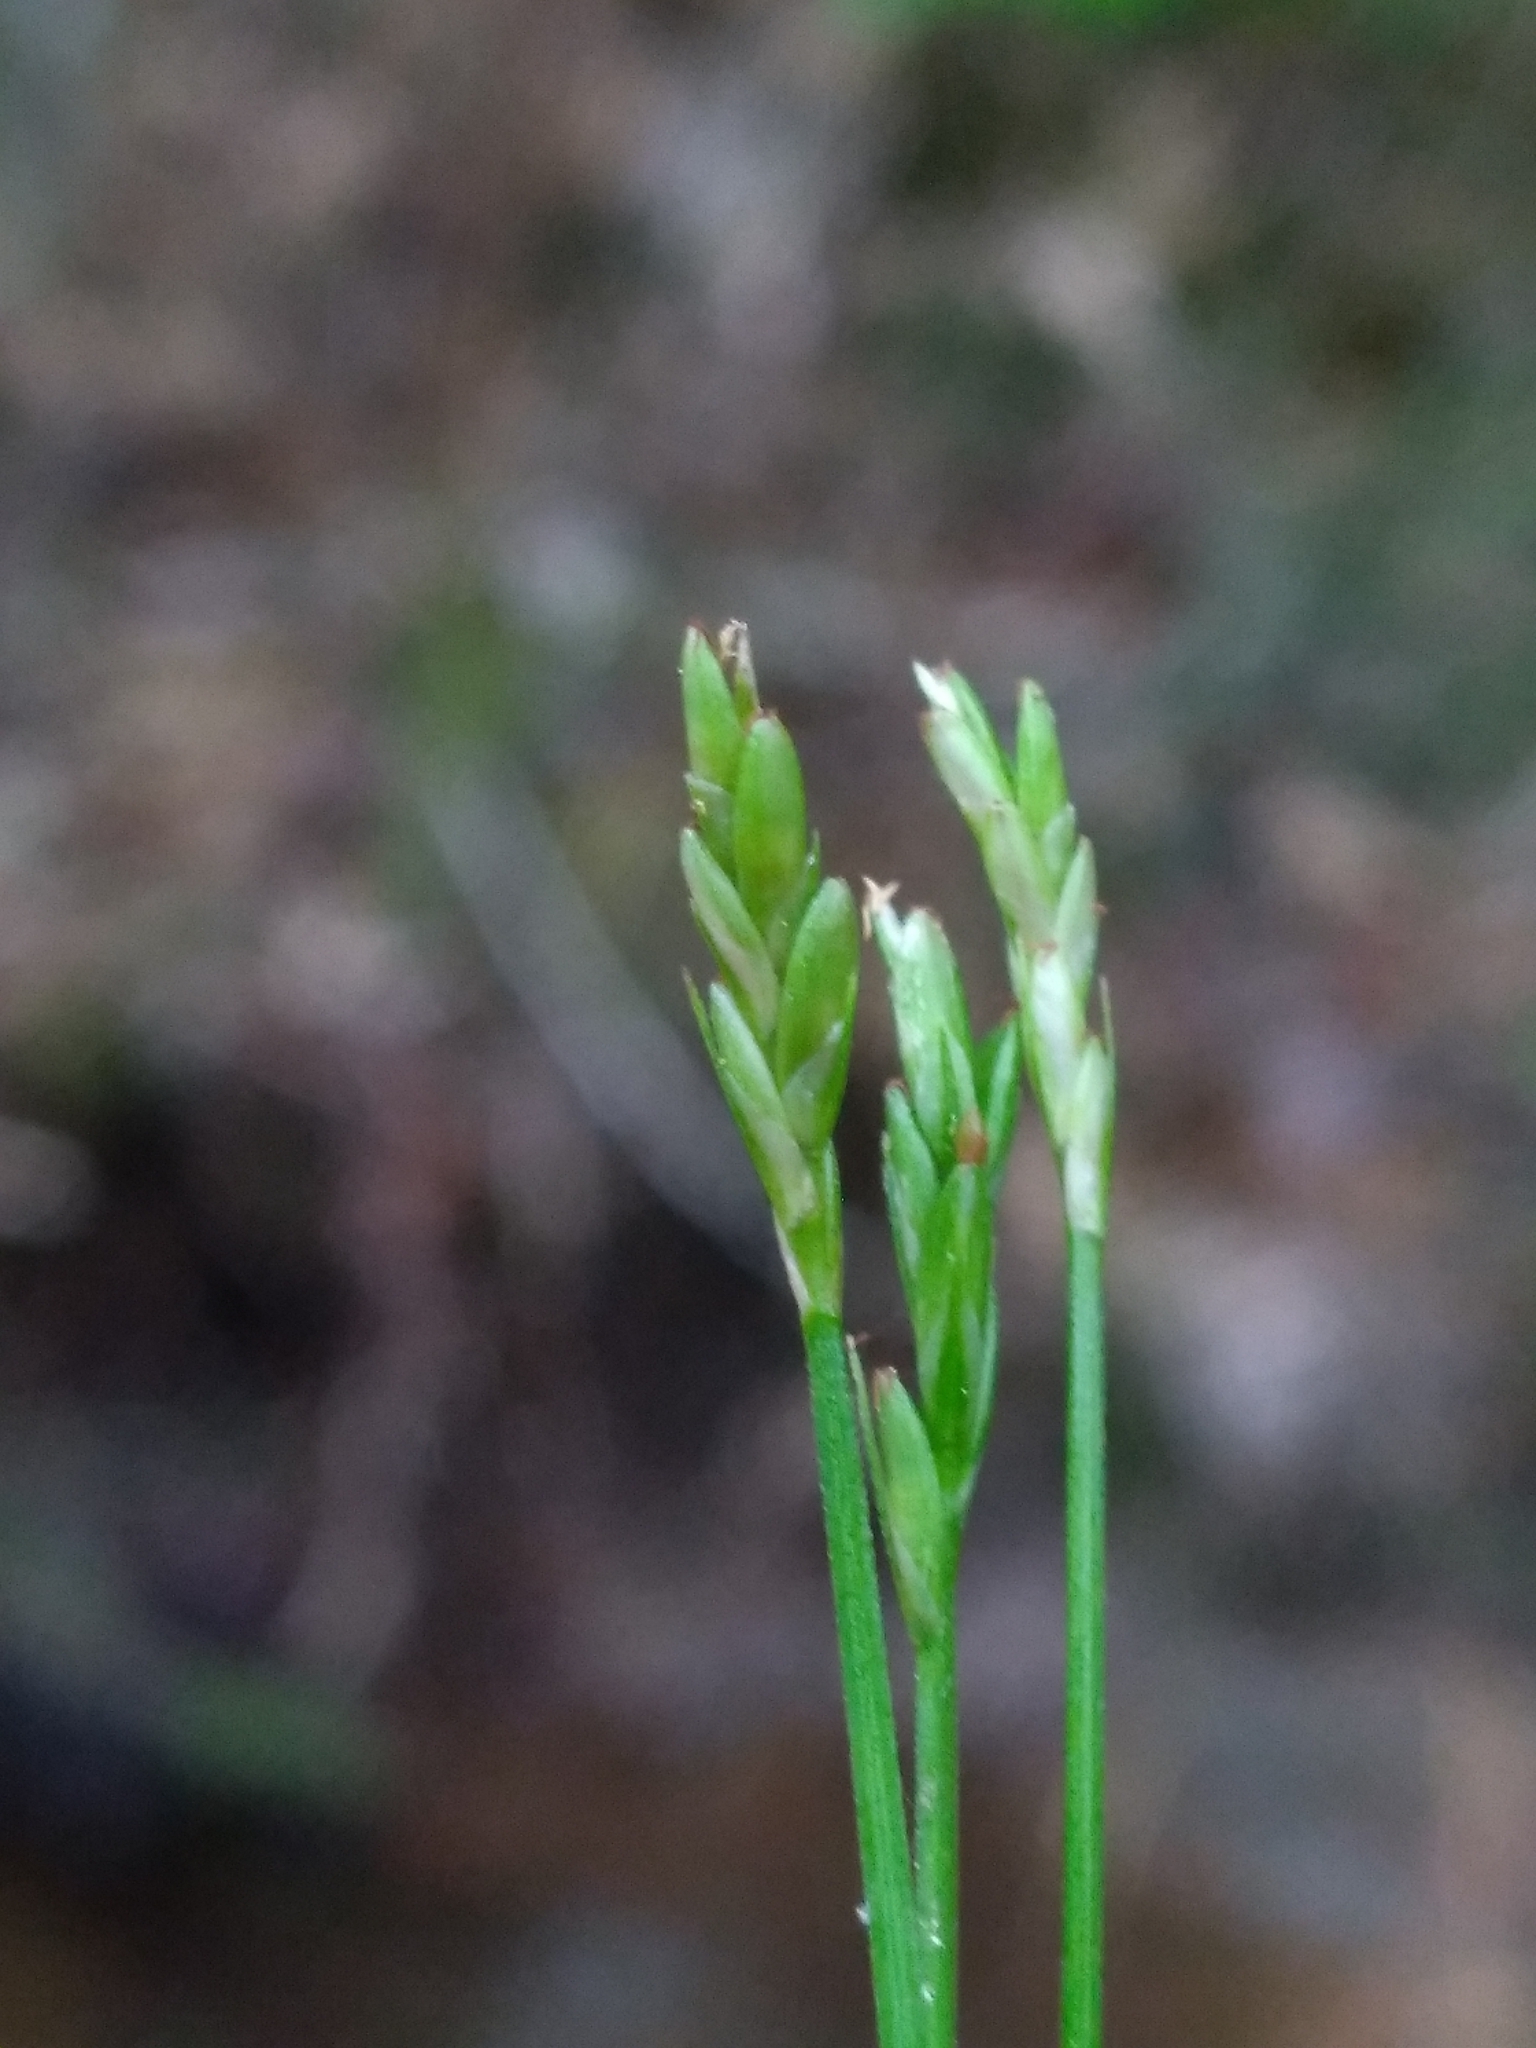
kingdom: Plantae
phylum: Tracheophyta
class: Liliopsida
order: Poales
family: Cyperaceae
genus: Carex
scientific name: Carex leptalea
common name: Bristly-stalked sedge
